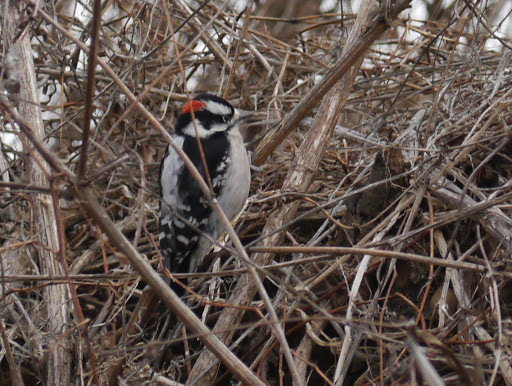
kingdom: Animalia
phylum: Chordata
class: Aves
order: Piciformes
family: Picidae
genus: Dryobates
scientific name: Dryobates pubescens
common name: Downy woodpecker
